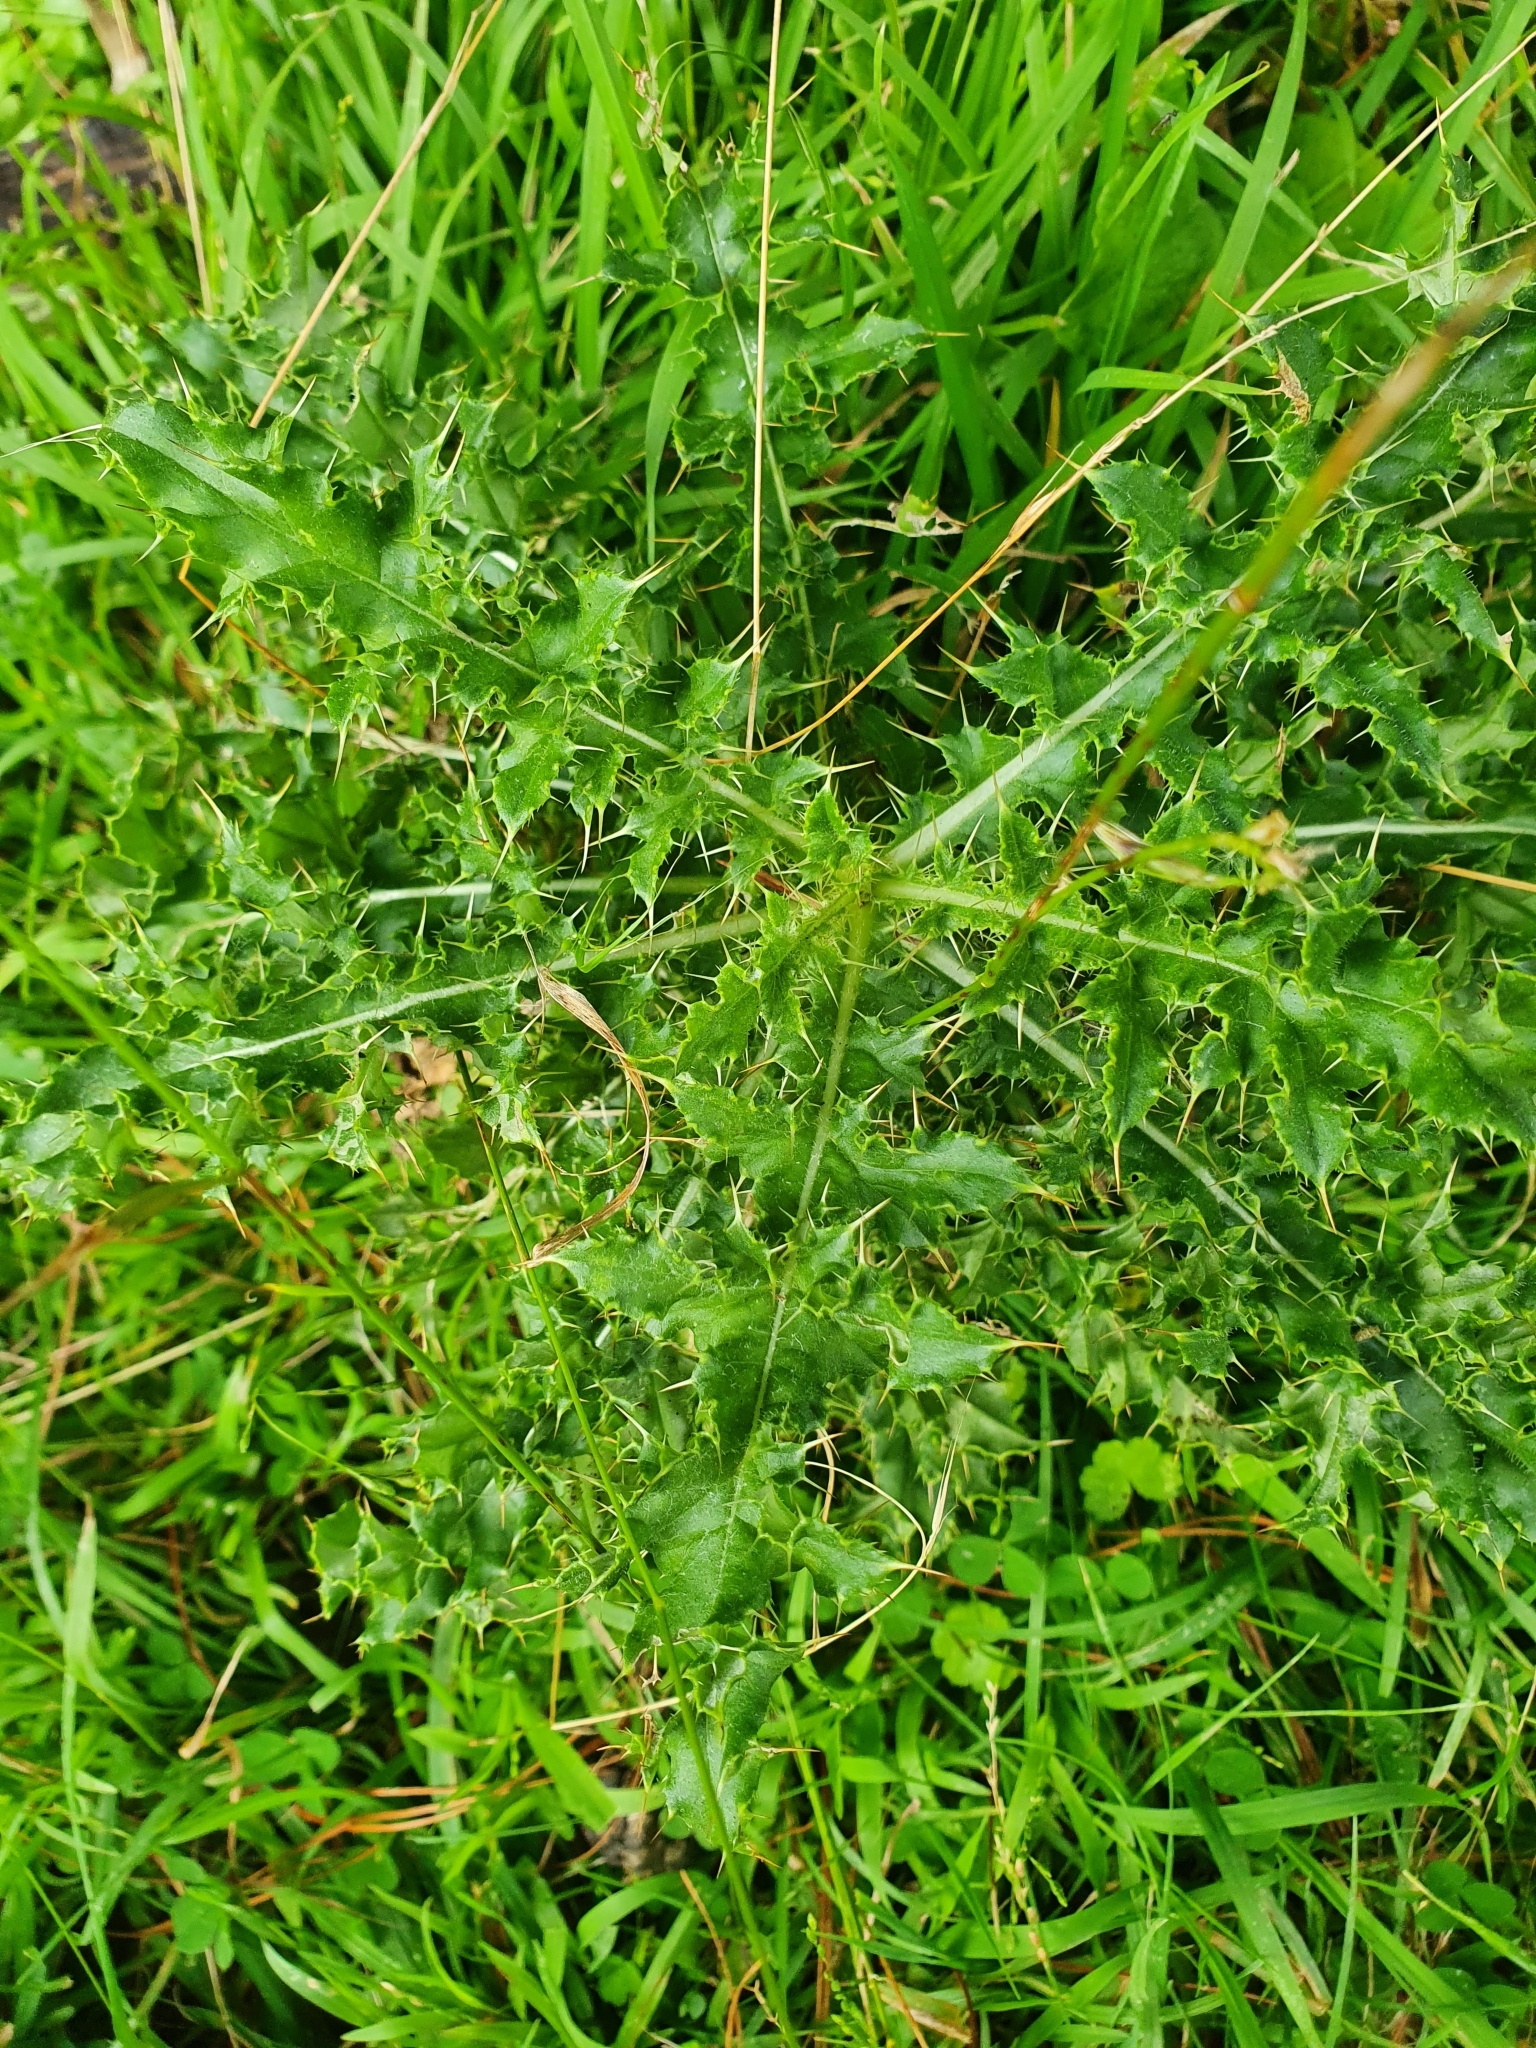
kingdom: Plantae
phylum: Tracheophyta
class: Magnoliopsida
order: Asterales
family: Asteraceae
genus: Cirsium
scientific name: Cirsium arvense
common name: Creeping thistle
